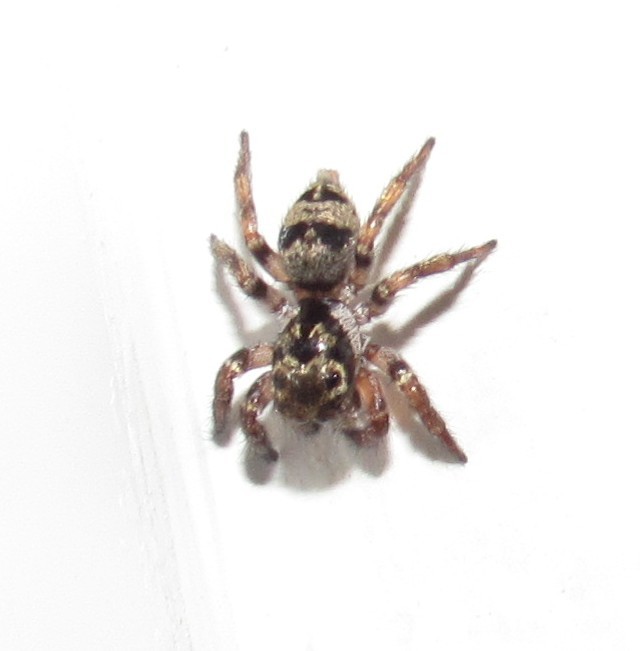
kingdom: Animalia
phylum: Arthropoda
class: Arachnida
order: Araneae
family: Salticidae
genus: Corythalia
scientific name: Corythalia conferta
